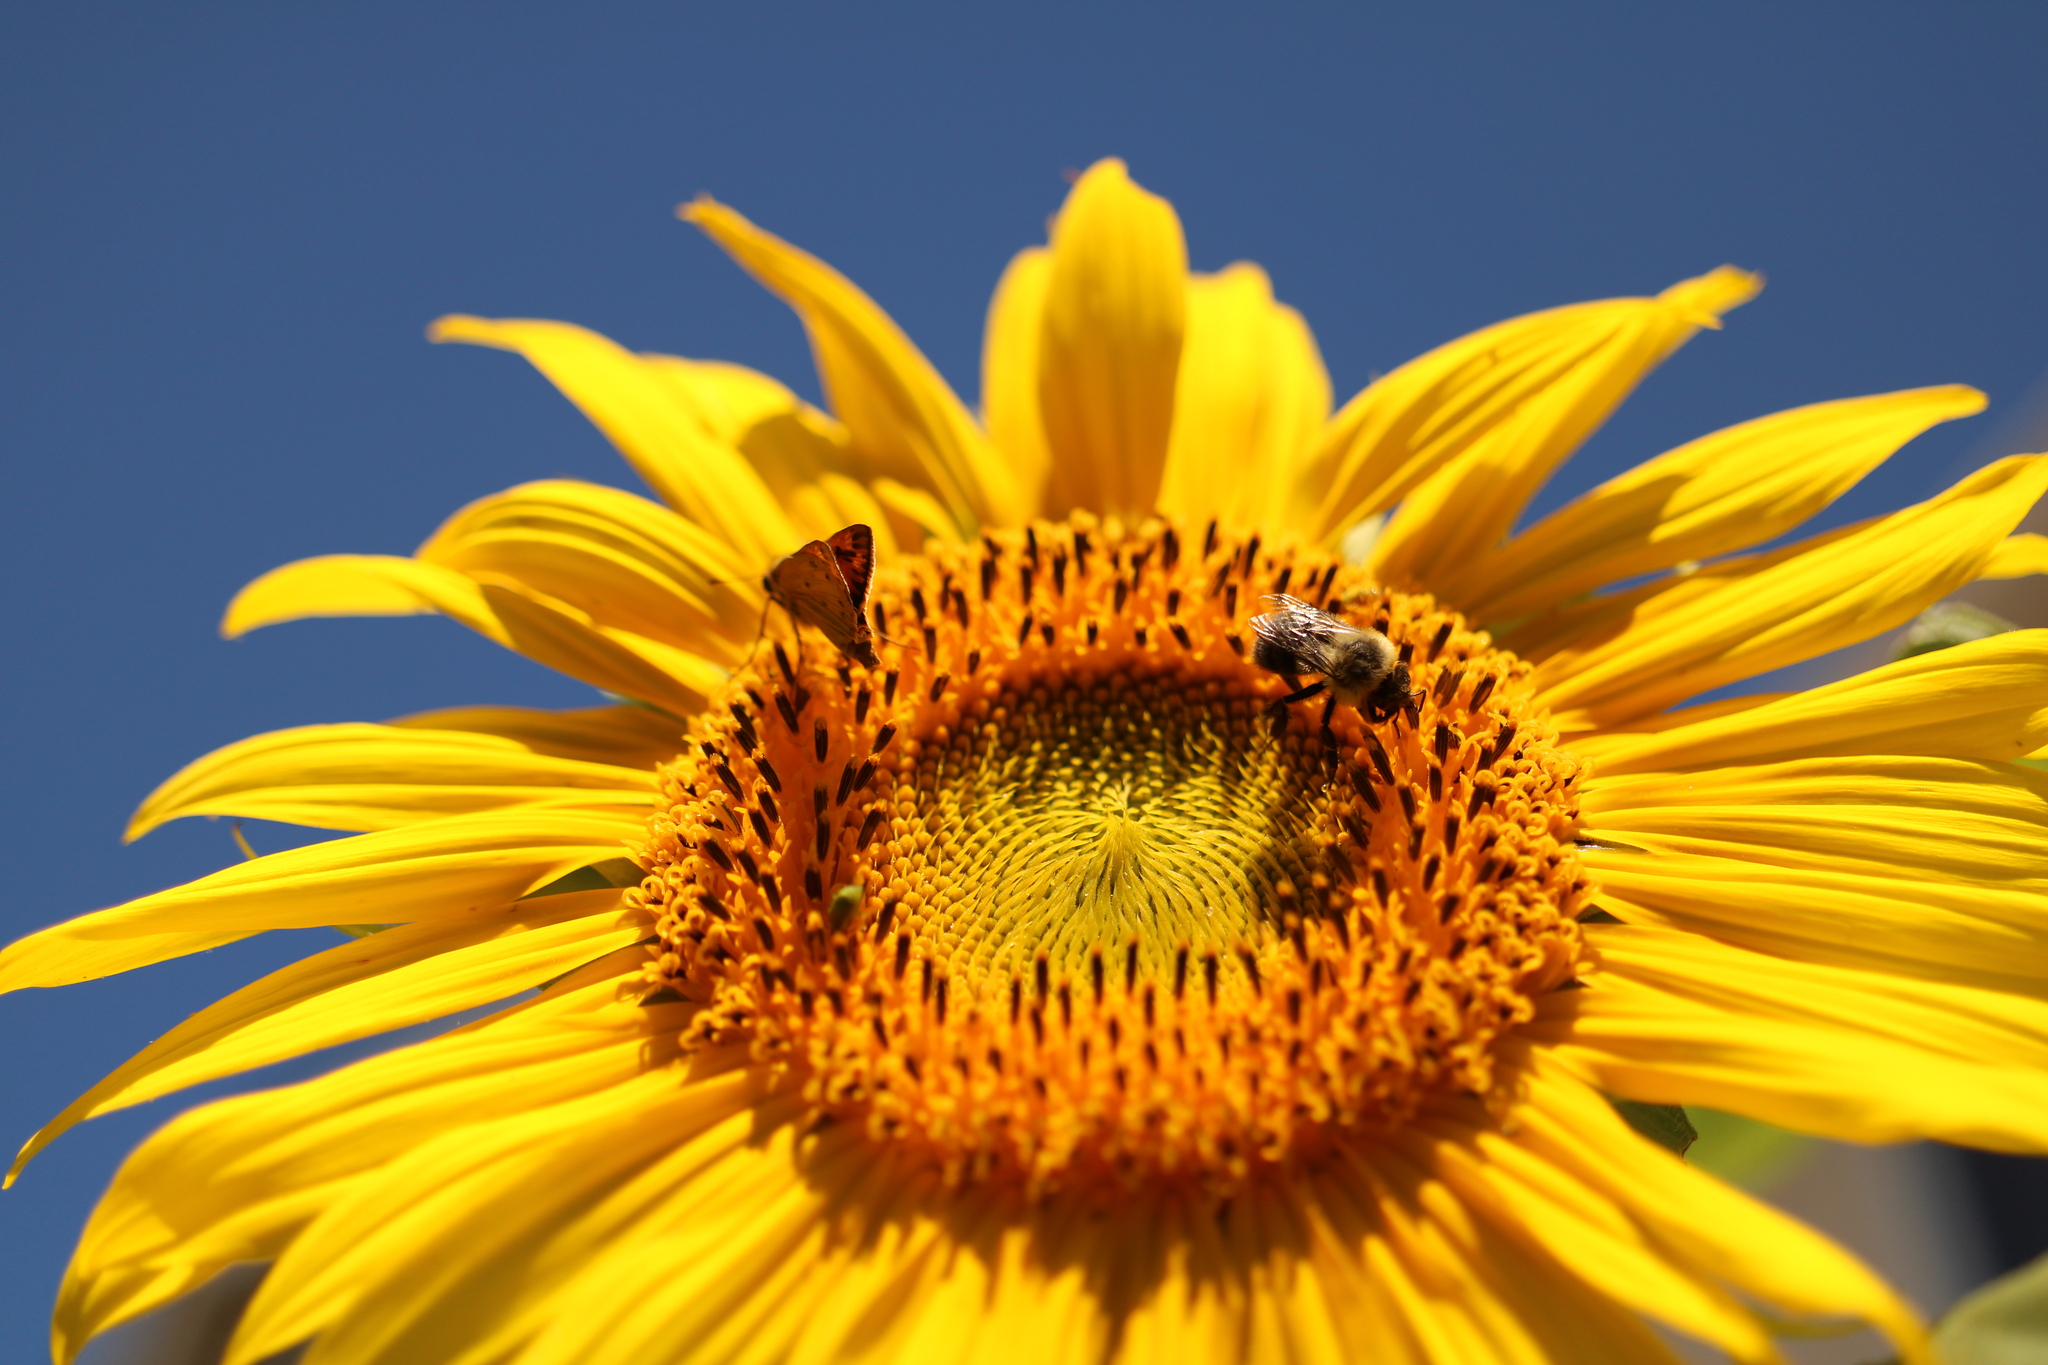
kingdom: Animalia
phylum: Arthropoda
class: Insecta
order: Lepidoptera
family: Hesperiidae
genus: Hylephila
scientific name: Hylephila phyleus
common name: Fiery skipper
